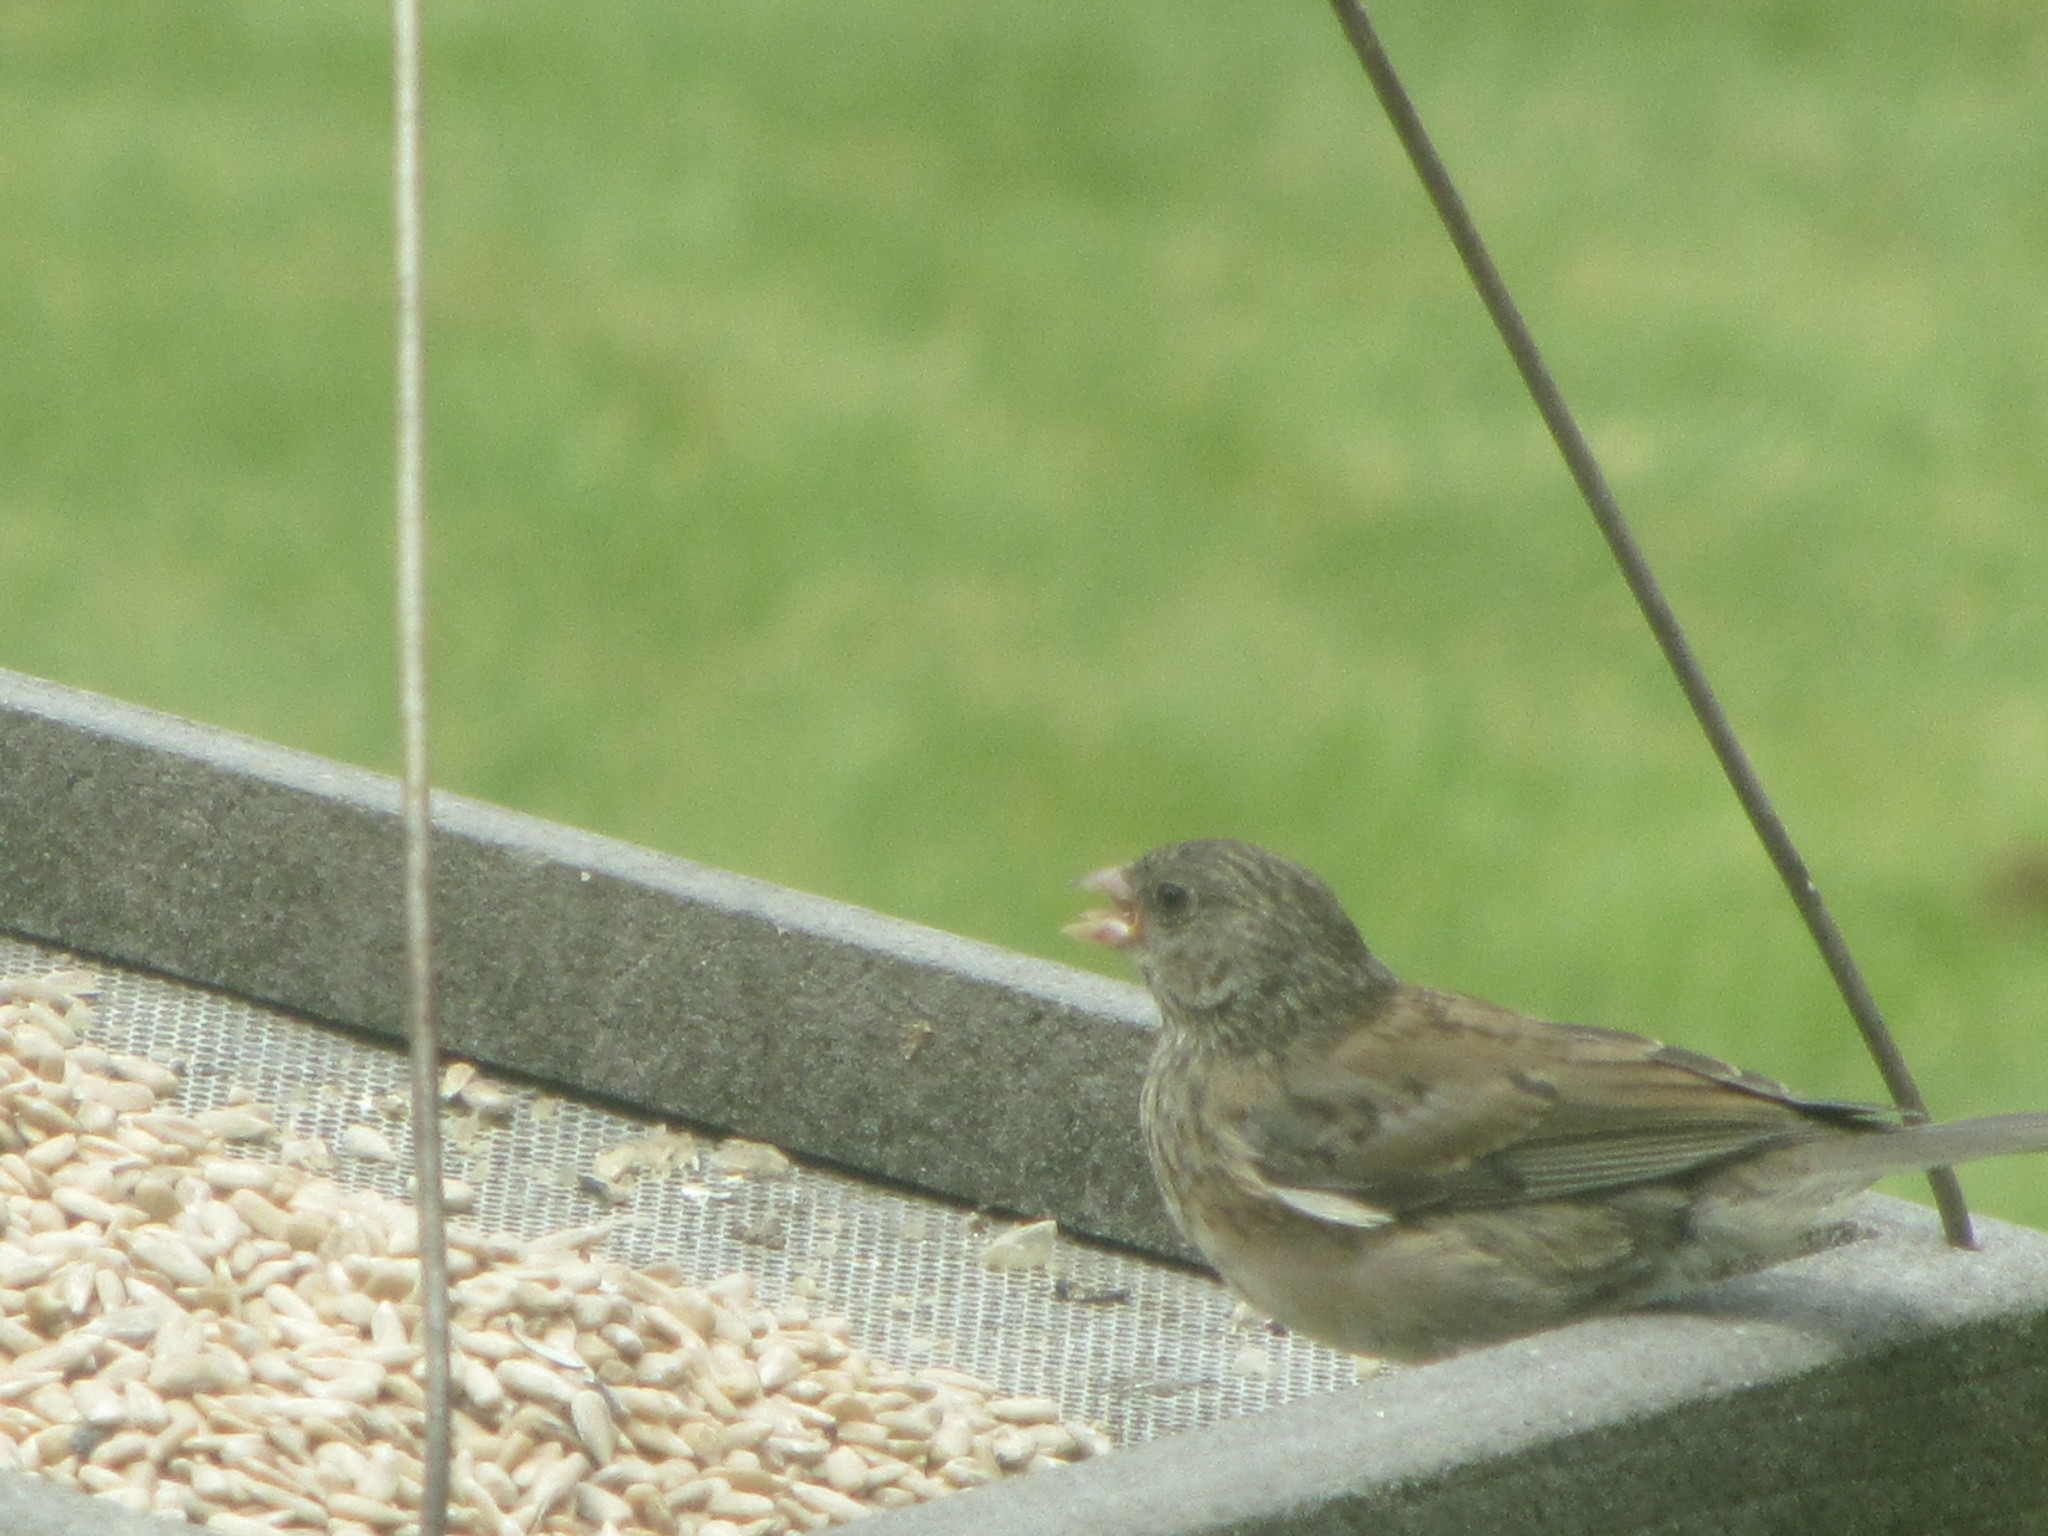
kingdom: Animalia
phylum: Chordata
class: Aves
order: Passeriformes
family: Passerellidae
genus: Junco
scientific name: Junco hyemalis
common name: Dark-eyed junco
